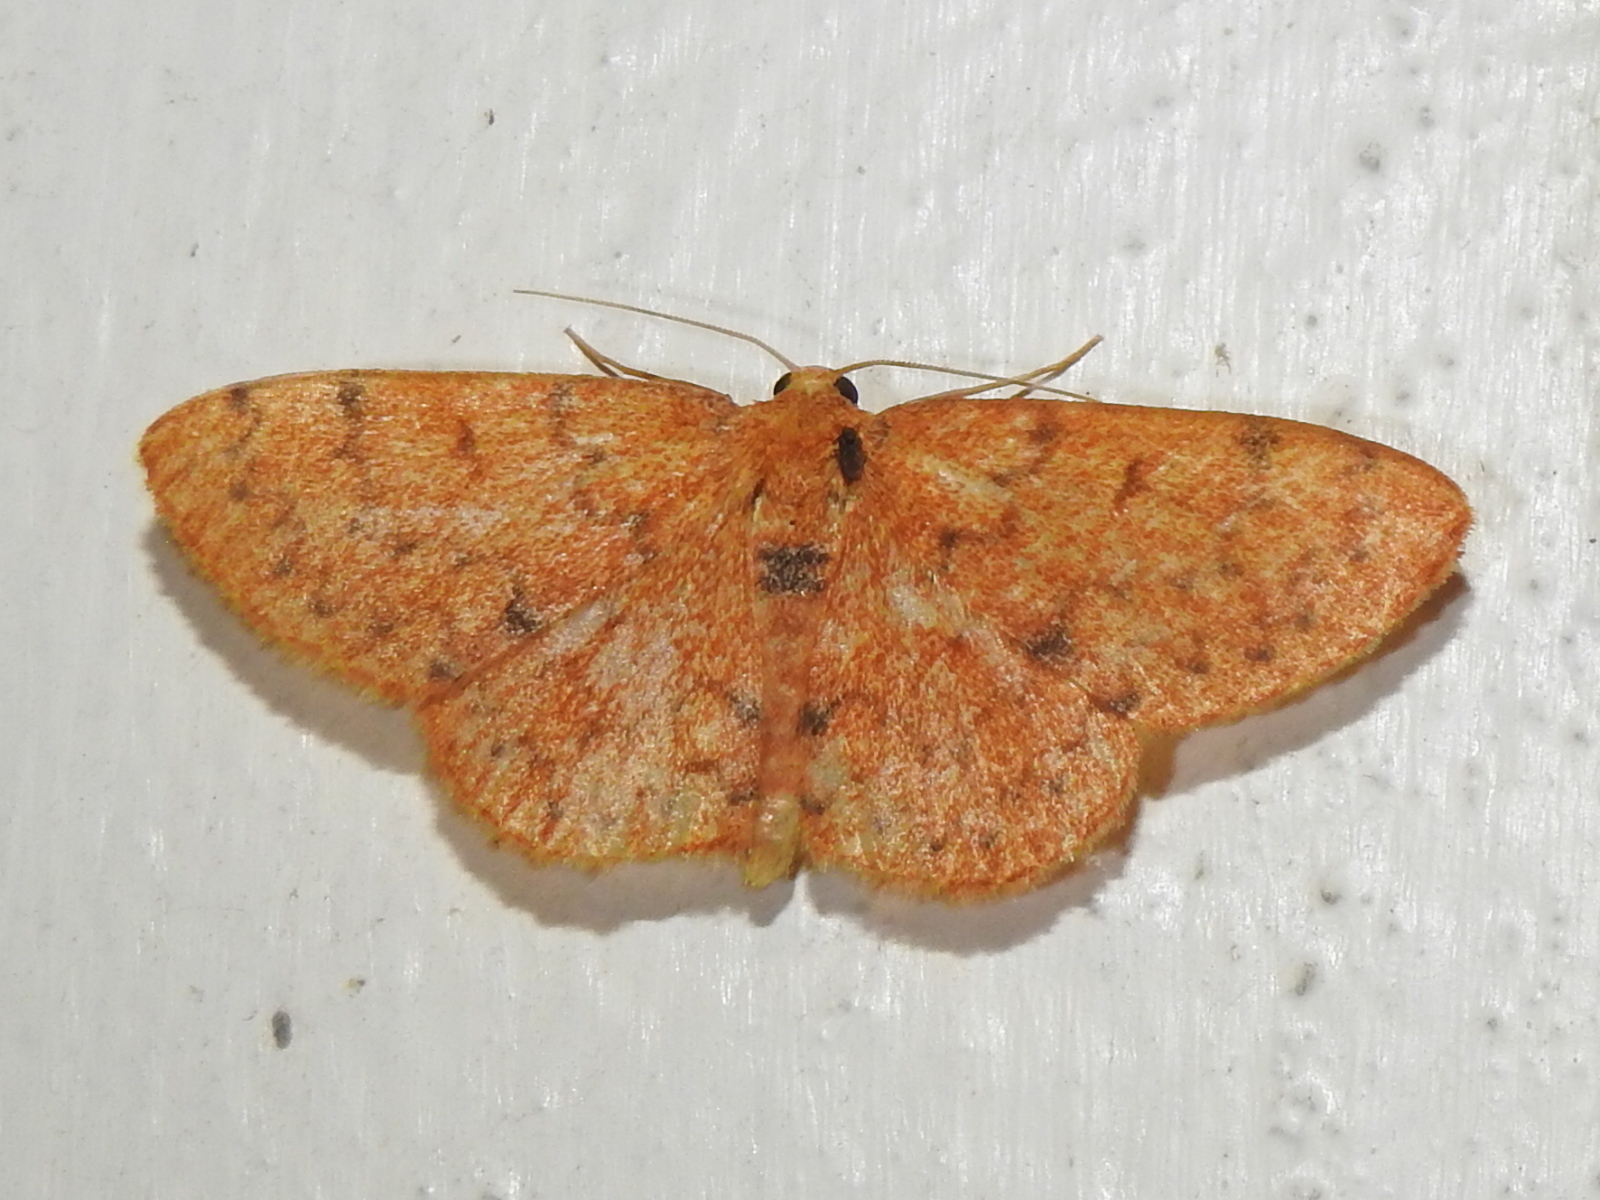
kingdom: Animalia
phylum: Arthropoda
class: Insecta
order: Lepidoptera
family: Geometridae
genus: Semaeopus
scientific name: Semaeopus trophinus
